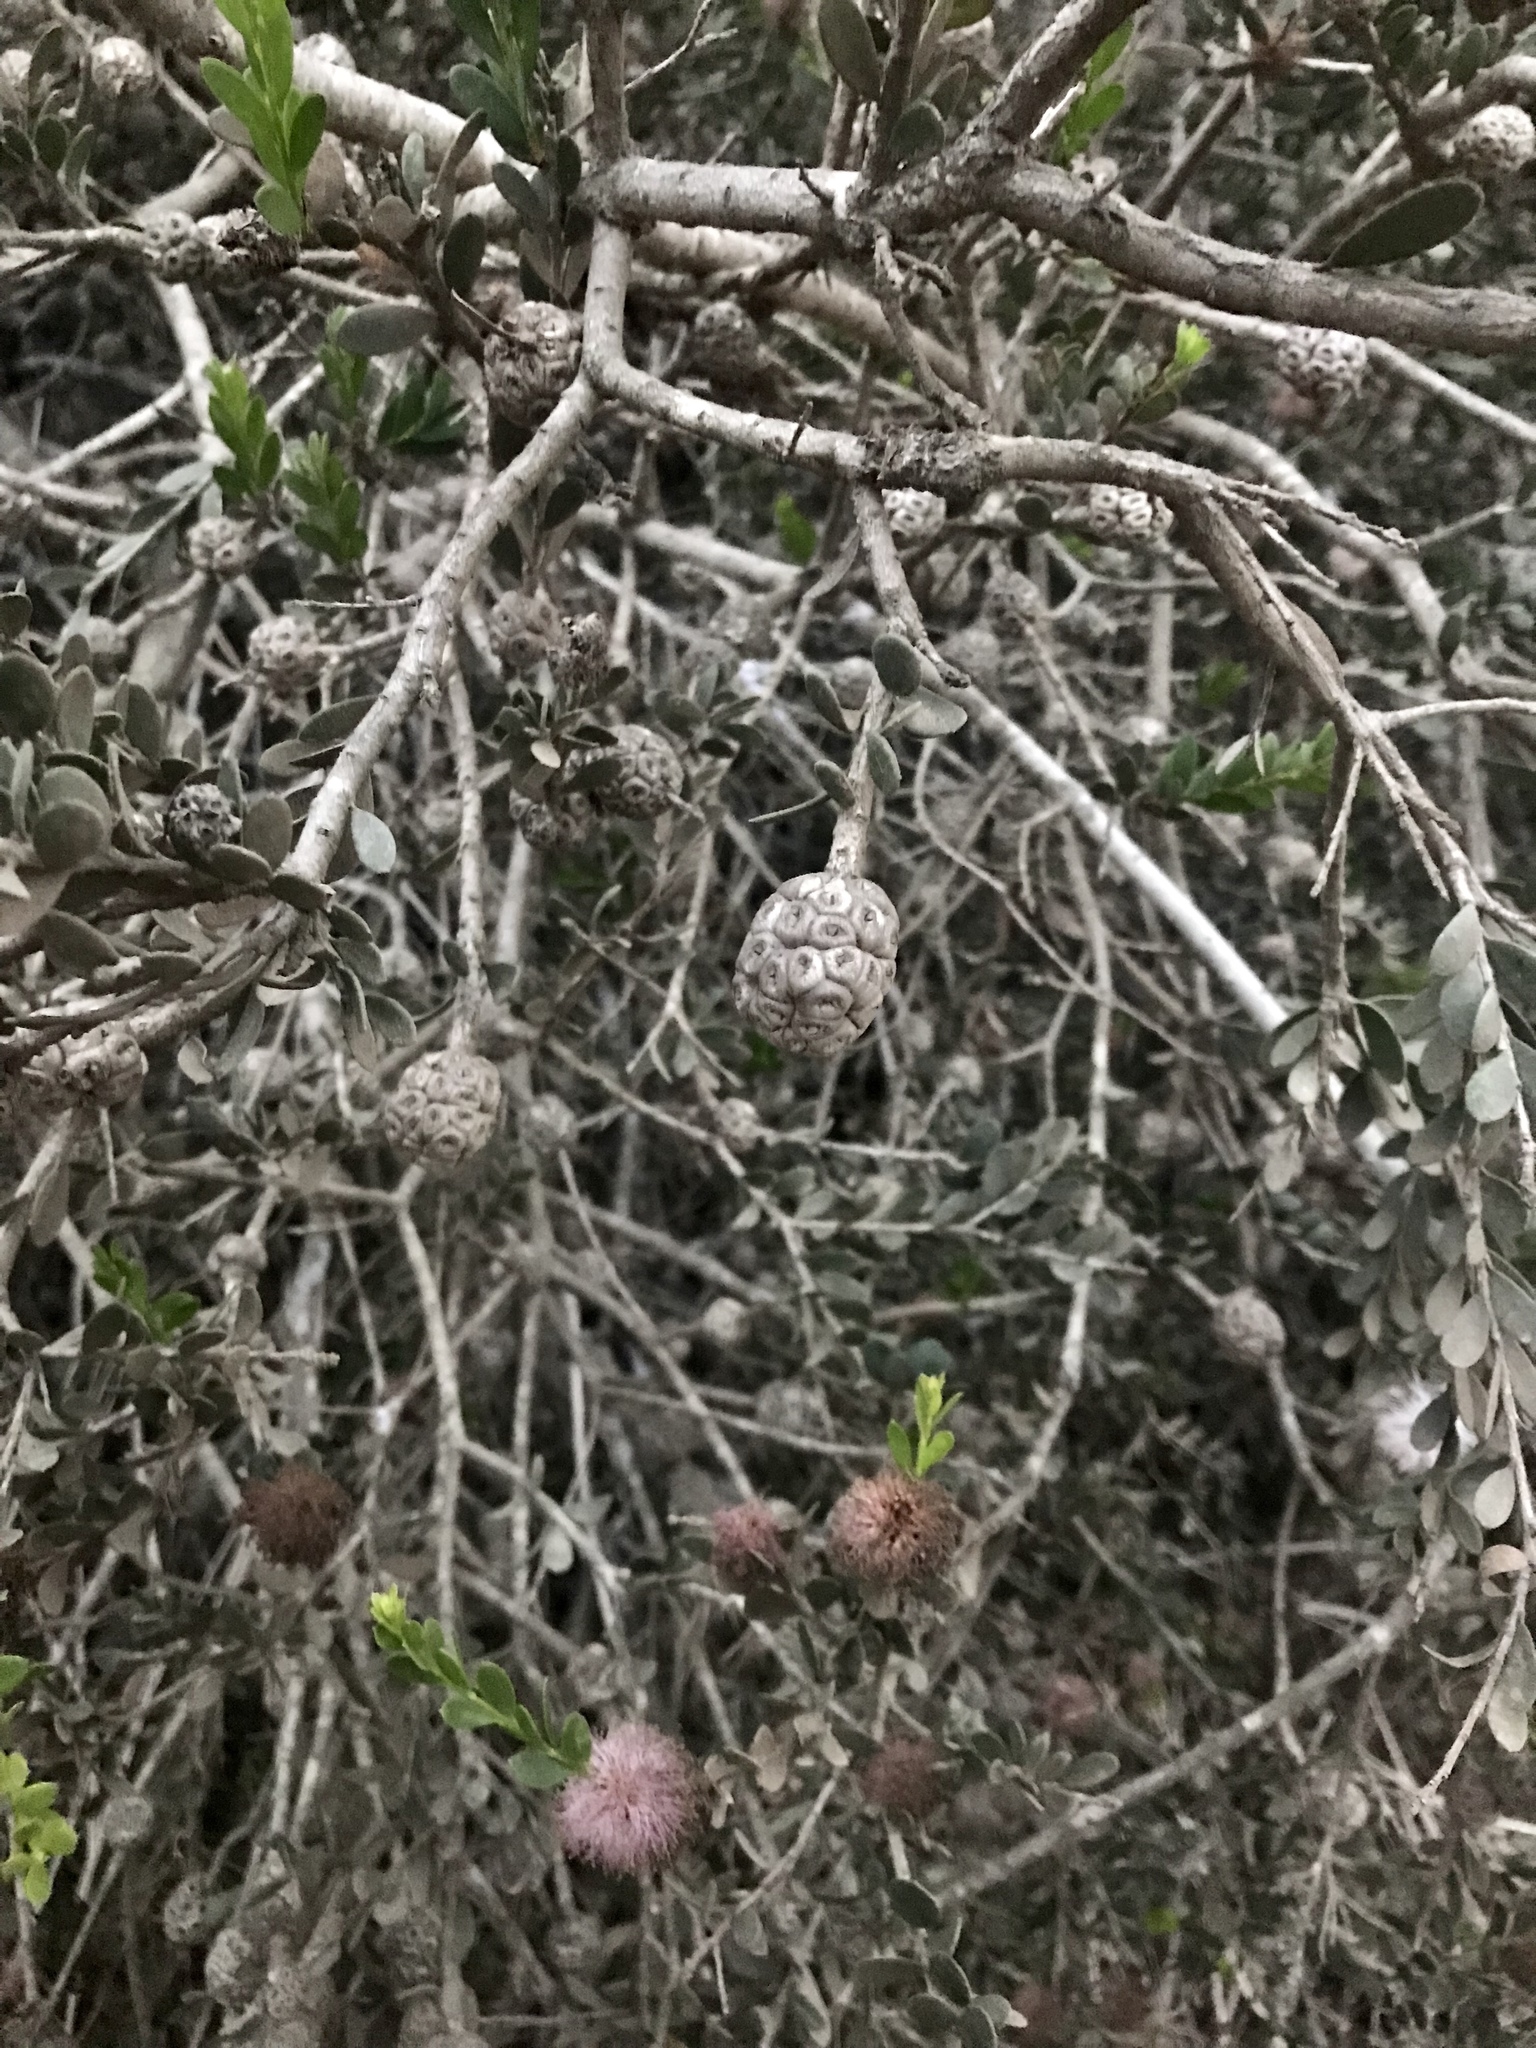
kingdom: Plantae
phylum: Tracheophyta
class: Magnoliopsida
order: Myrtales
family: Myrtaceae
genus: Melaleuca
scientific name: Melaleuca nesophila
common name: Mauve honey myrtle
